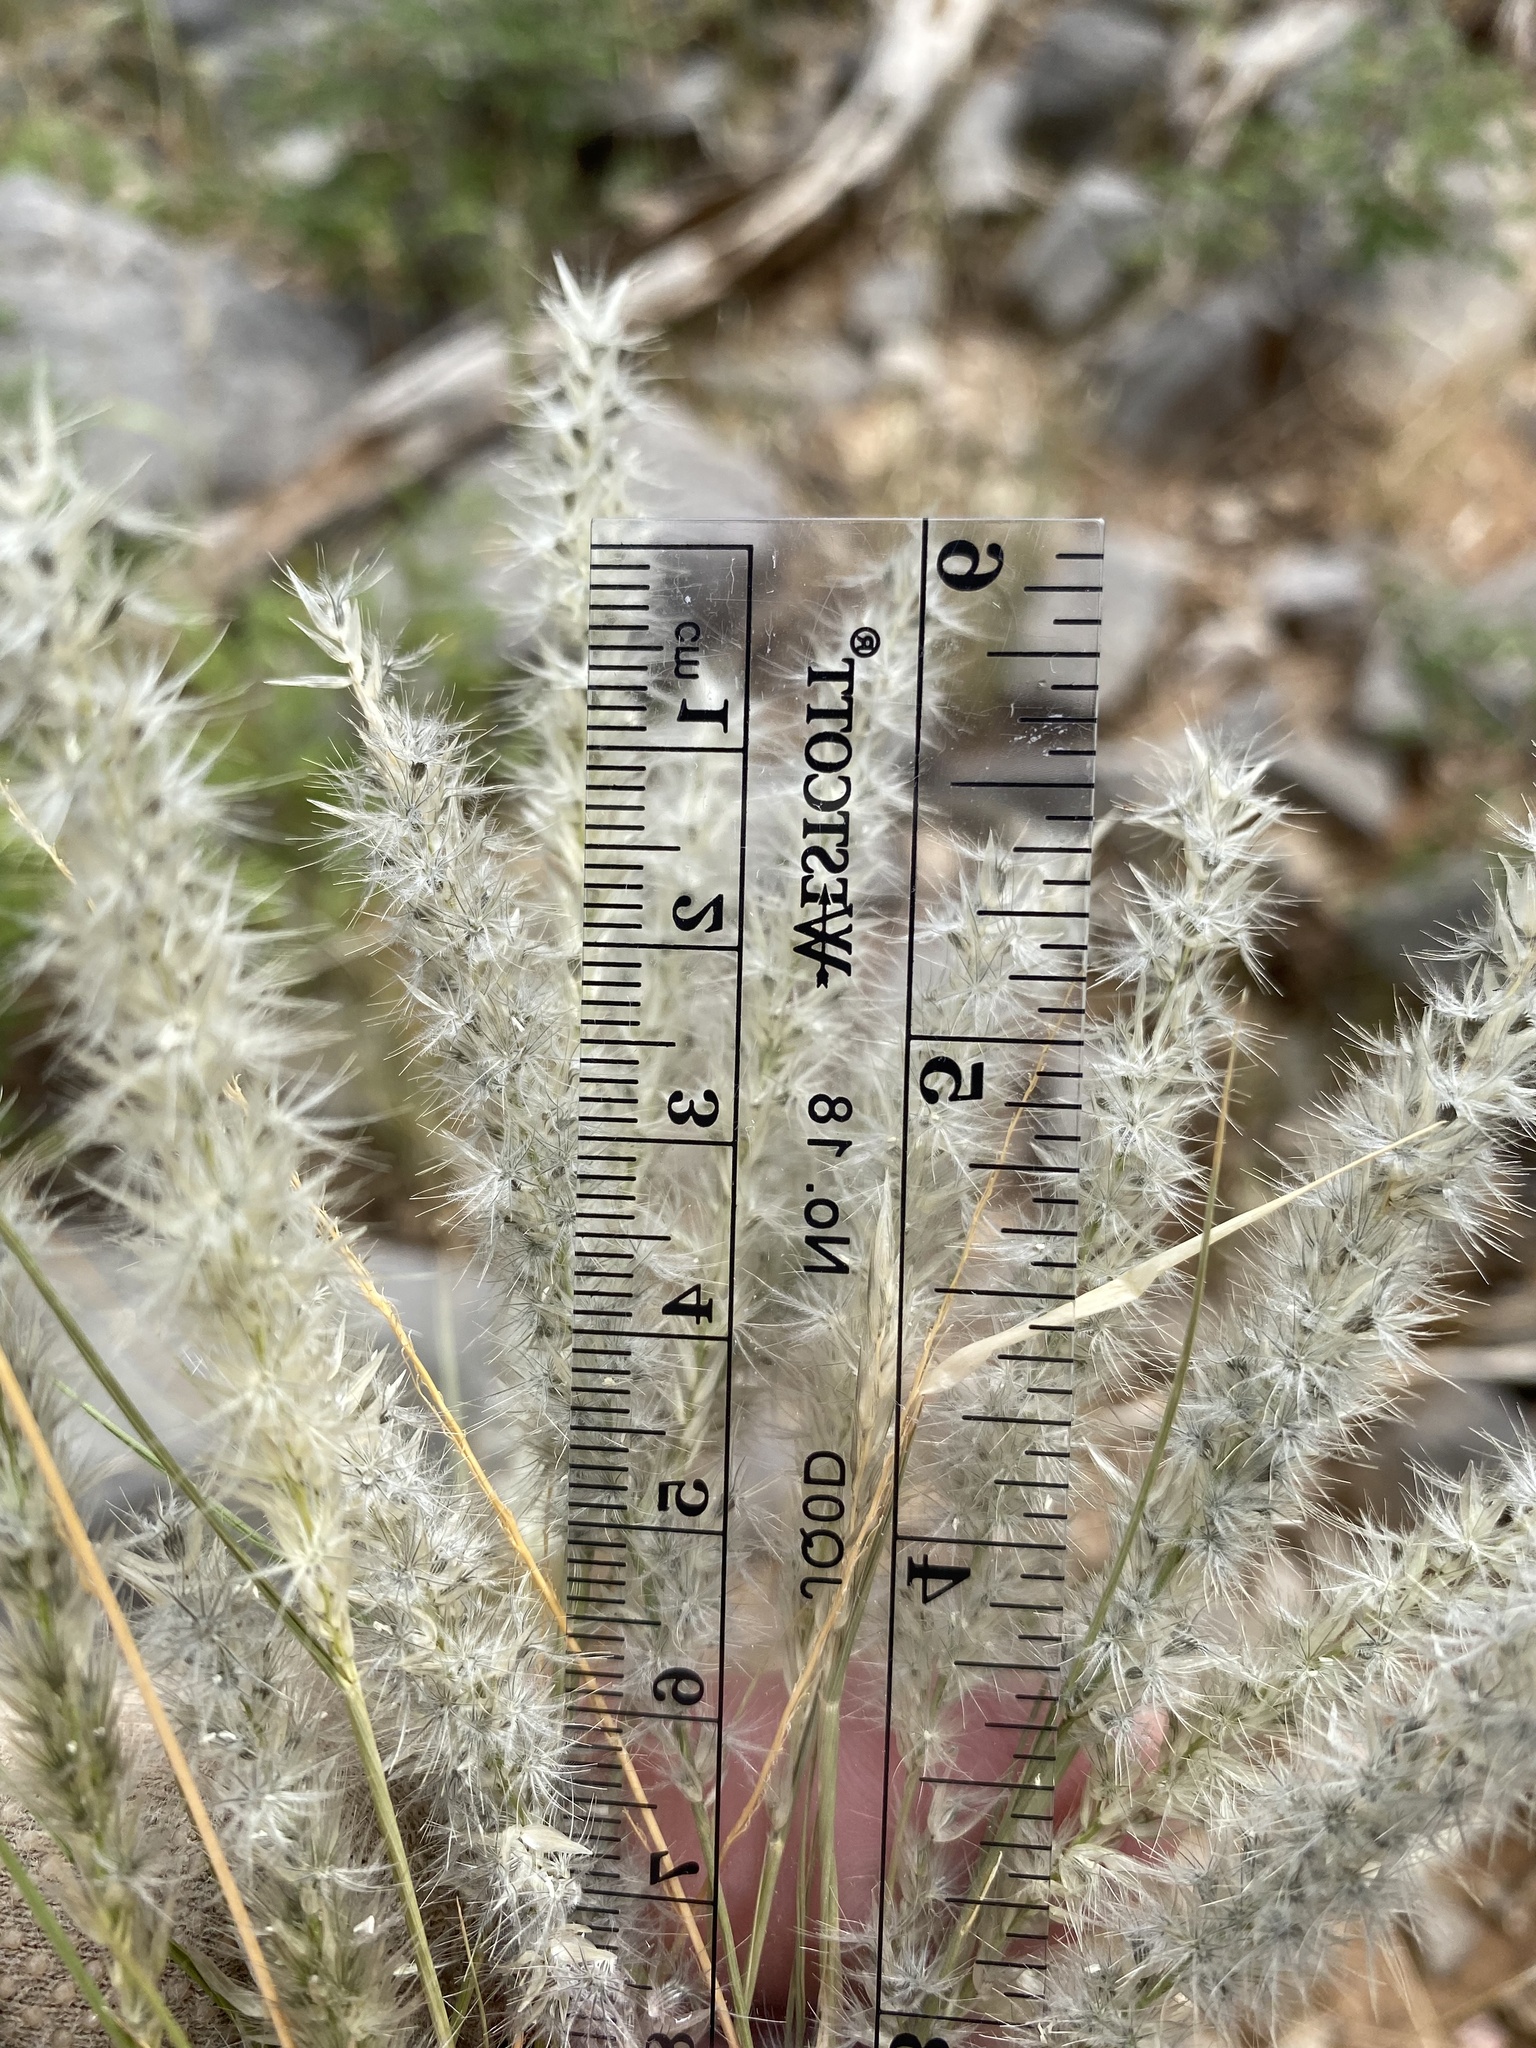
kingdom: Plantae
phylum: Tracheophyta
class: Liliopsida
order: Poales
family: Poaceae
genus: Enneapogon
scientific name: Enneapogon desvauxii
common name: Feather pappus grass
